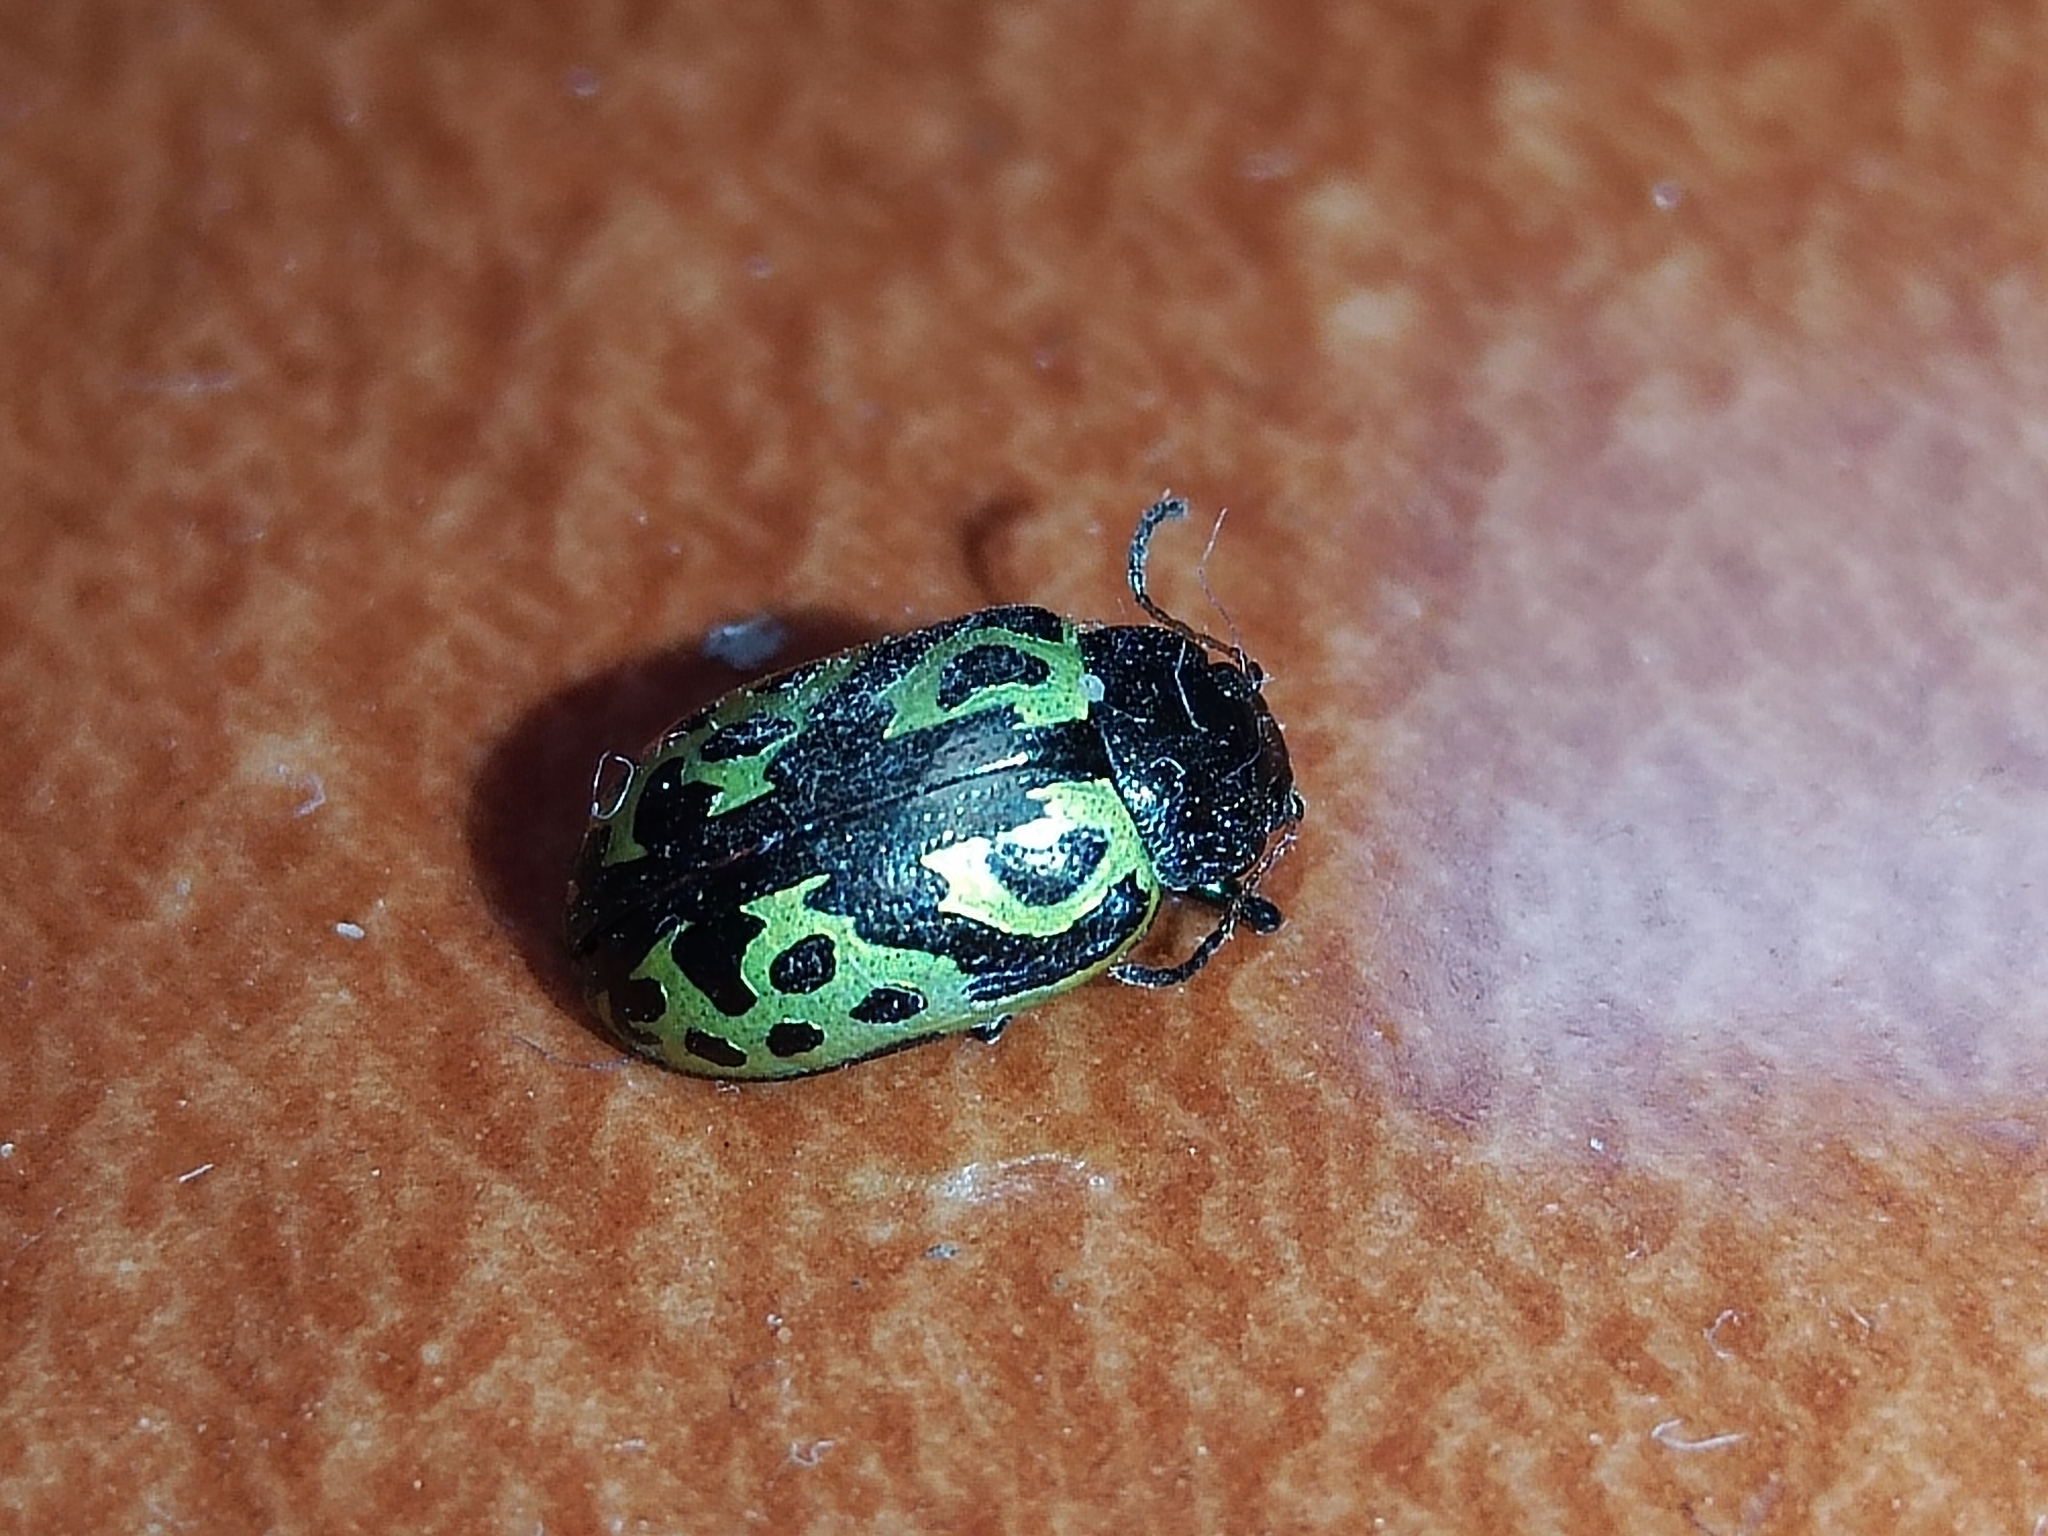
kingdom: Animalia
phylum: Arthropoda
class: Insecta
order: Coleoptera
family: Chrysomelidae
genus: Calligrapha
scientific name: Calligrapha
